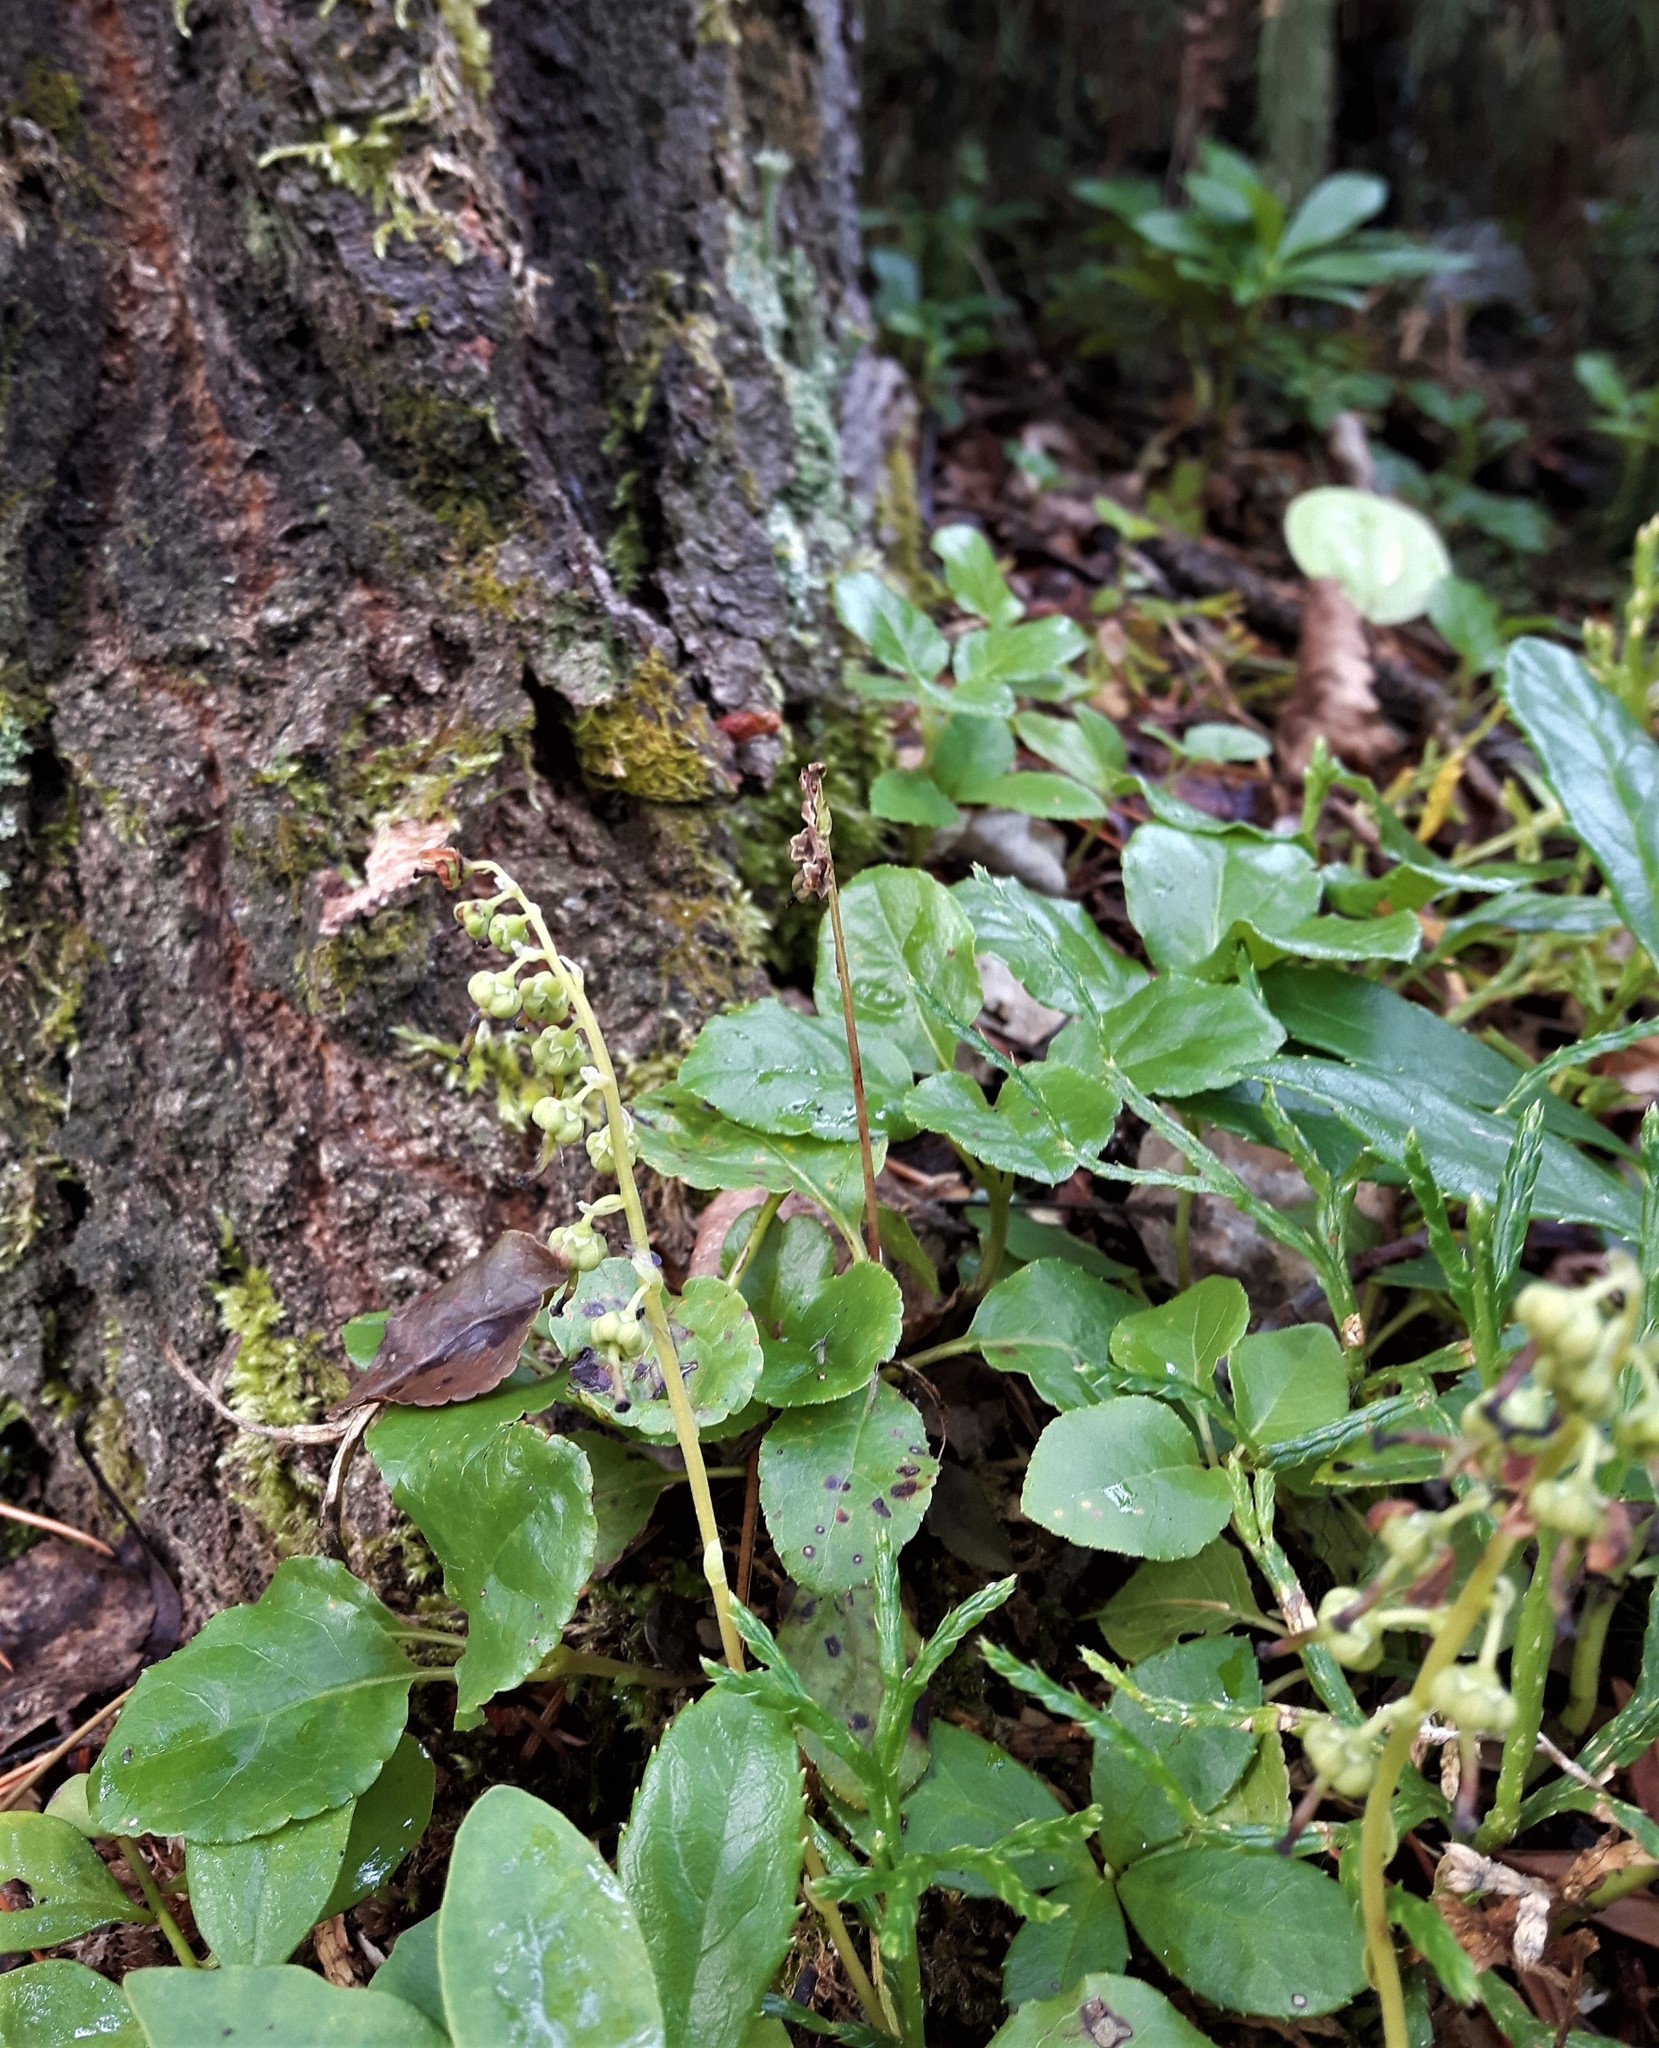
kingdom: Plantae
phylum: Tracheophyta
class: Magnoliopsida
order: Ericales
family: Ericaceae
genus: Orthilia
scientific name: Orthilia secunda
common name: One-sided orthilia
